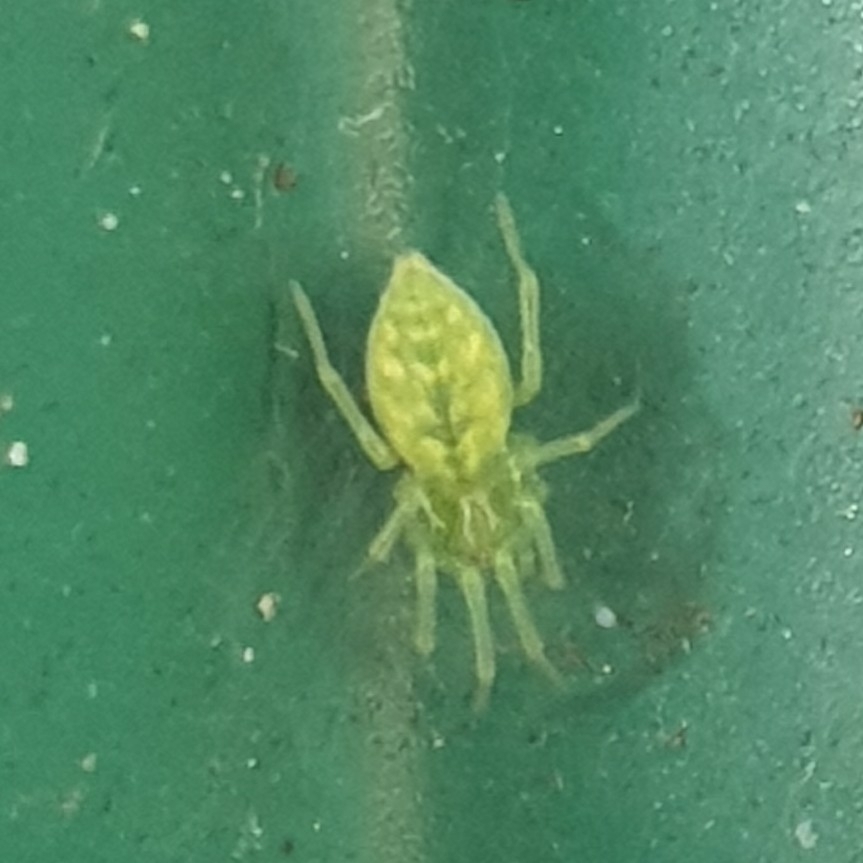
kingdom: Animalia
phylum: Arthropoda
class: Arachnida
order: Araneae
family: Dictynidae
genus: Nigma
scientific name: Nigma walckenaeri
